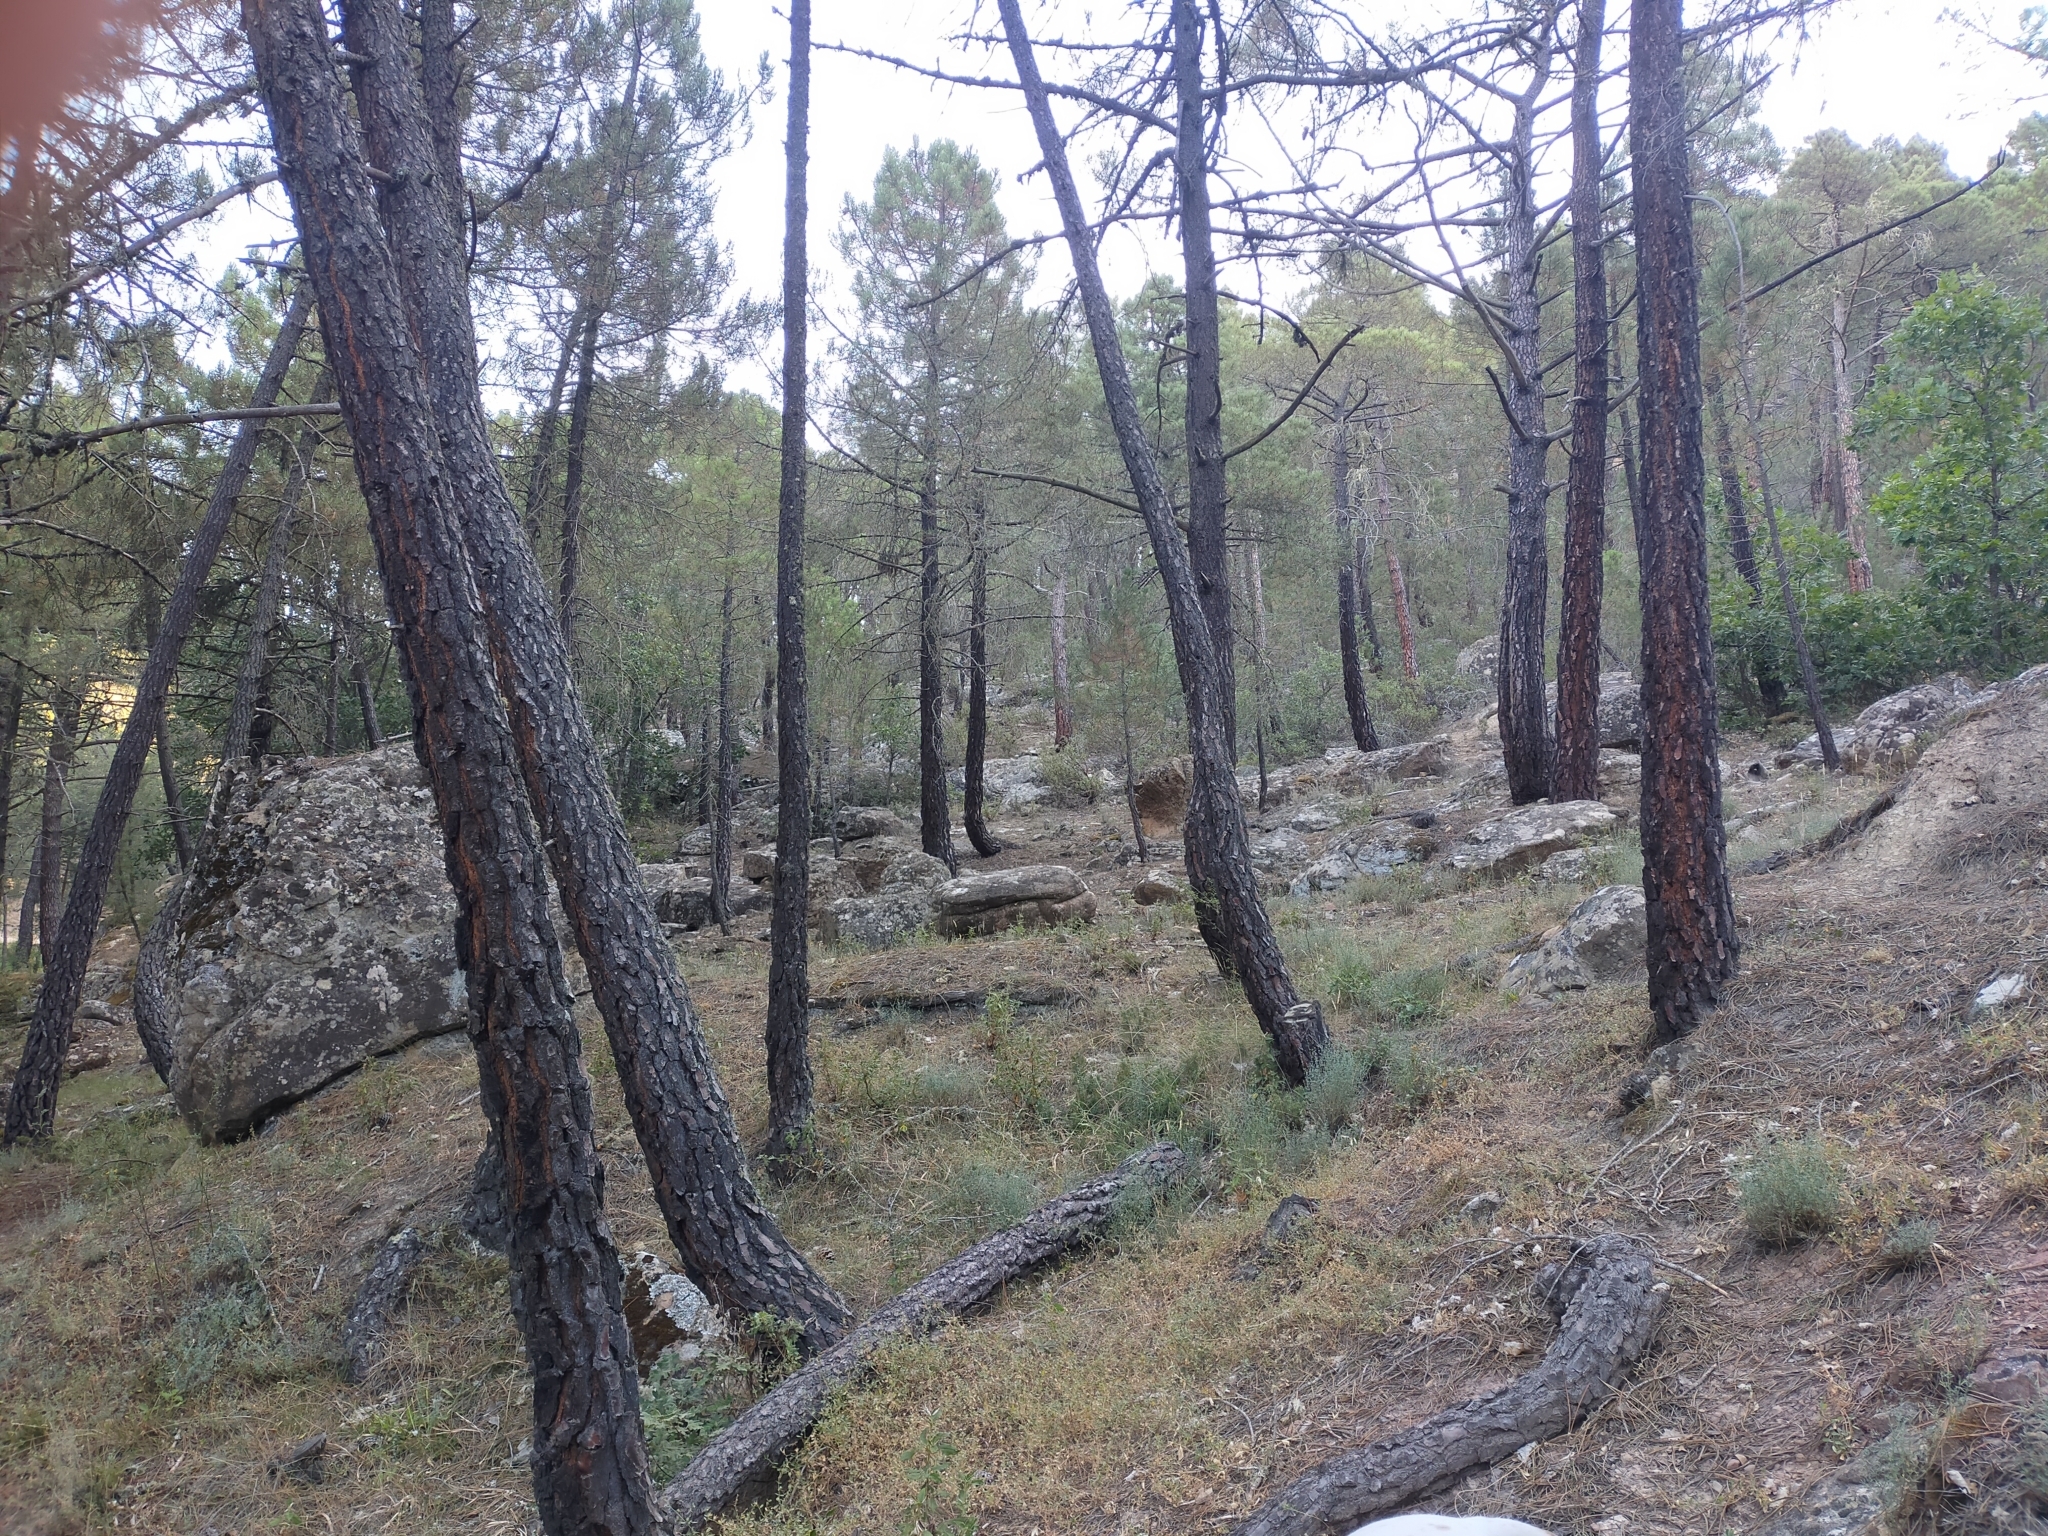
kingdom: Plantae
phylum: Tracheophyta
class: Pinopsida
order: Pinales
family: Pinaceae
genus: Pinus
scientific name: Pinus pinaster
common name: Maritime pine
